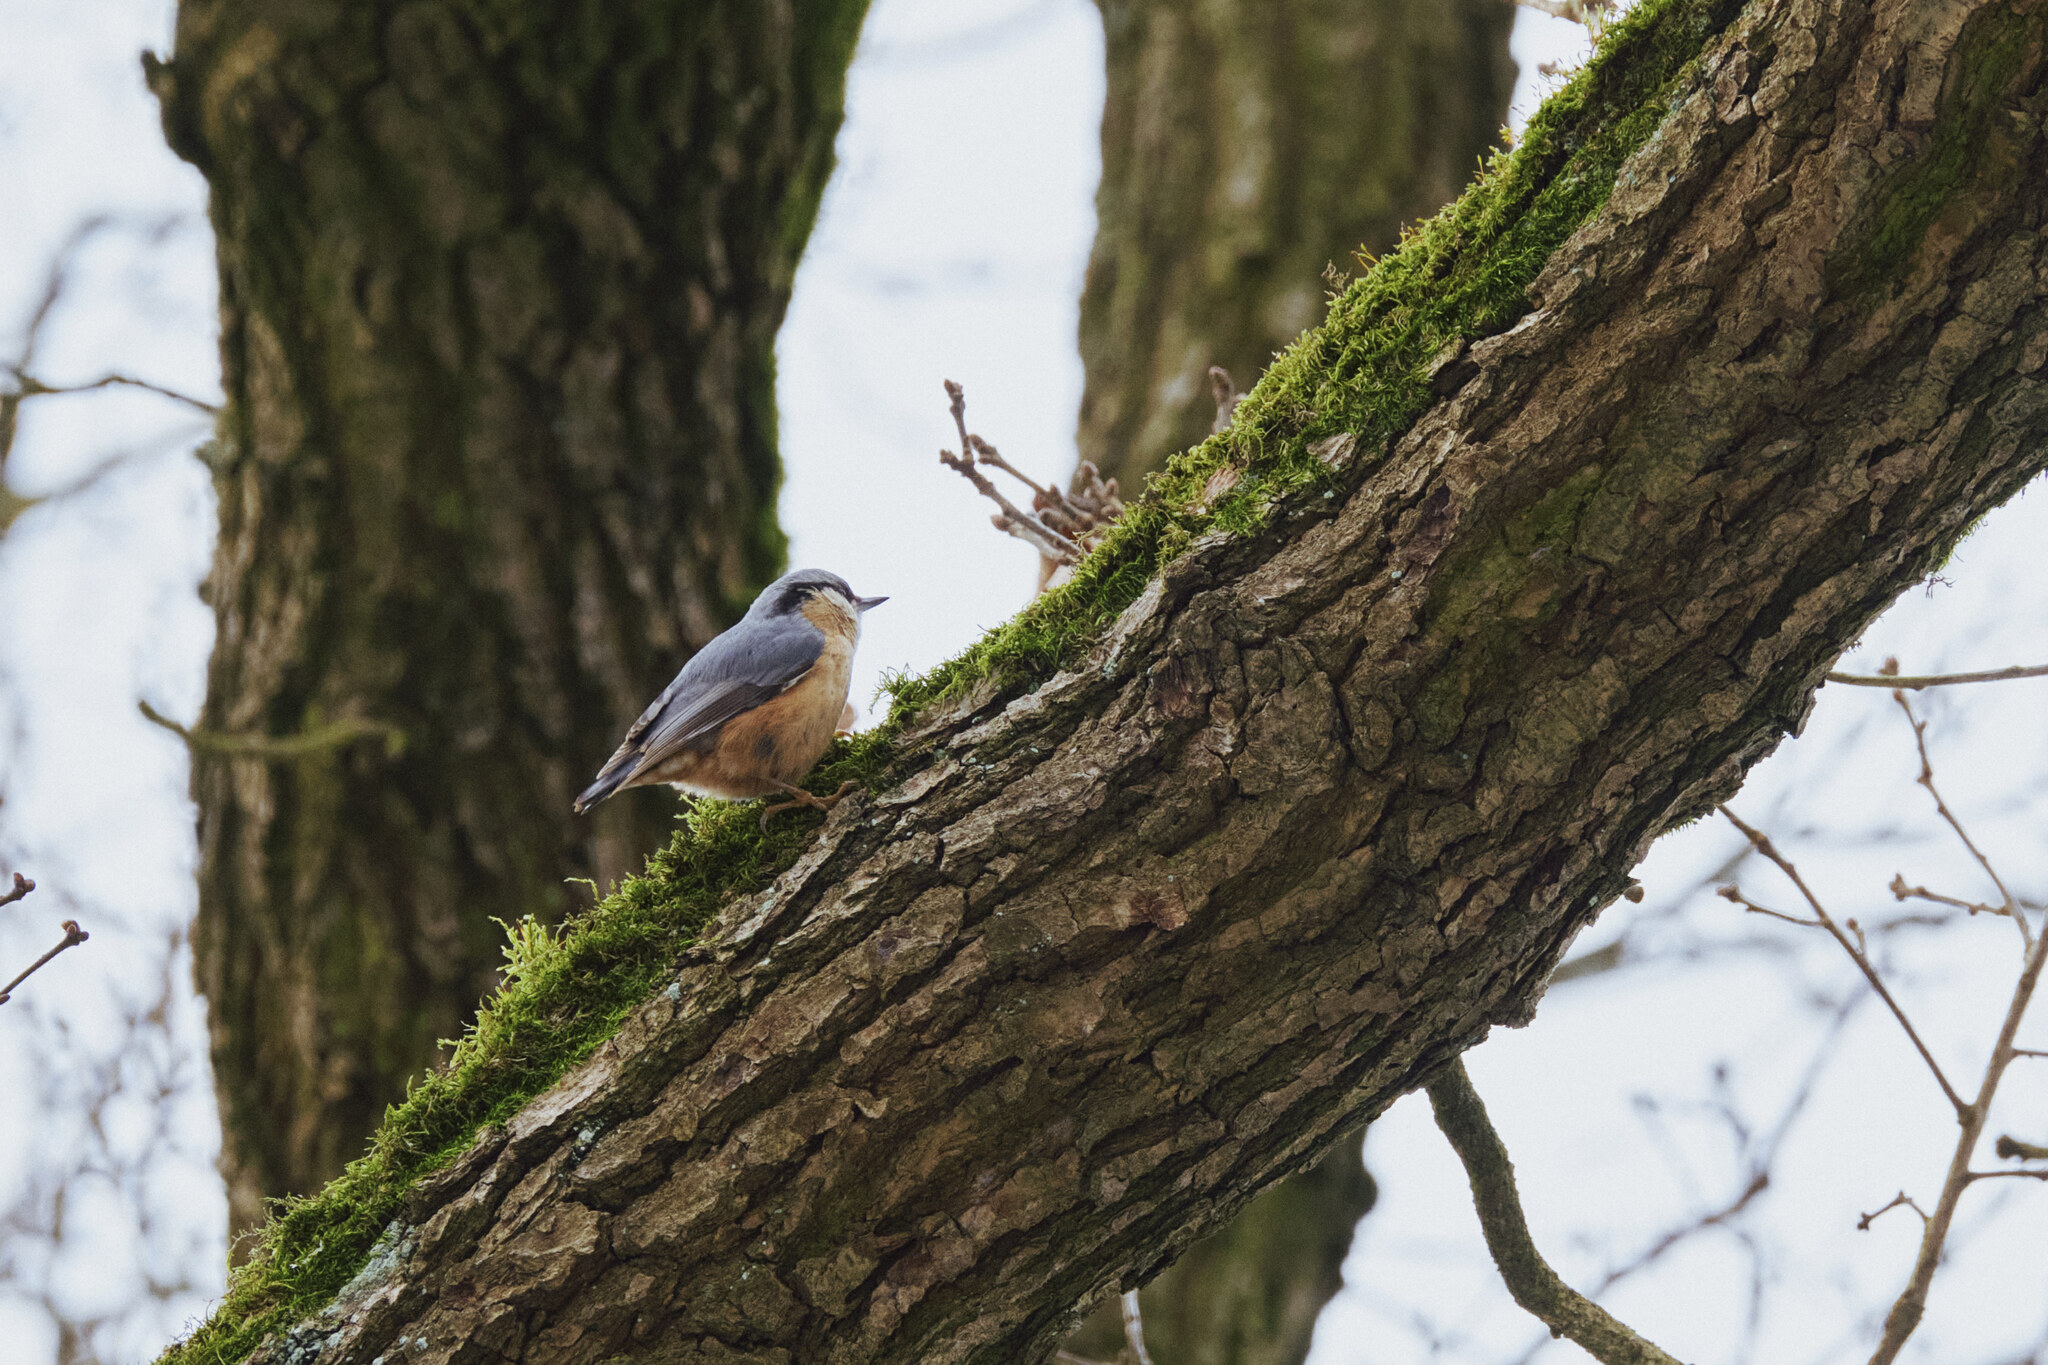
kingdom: Animalia
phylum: Chordata
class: Aves
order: Passeriformes
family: Sittidae
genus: Sitta
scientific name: Sitta europaea
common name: Eurasian nuthatch
